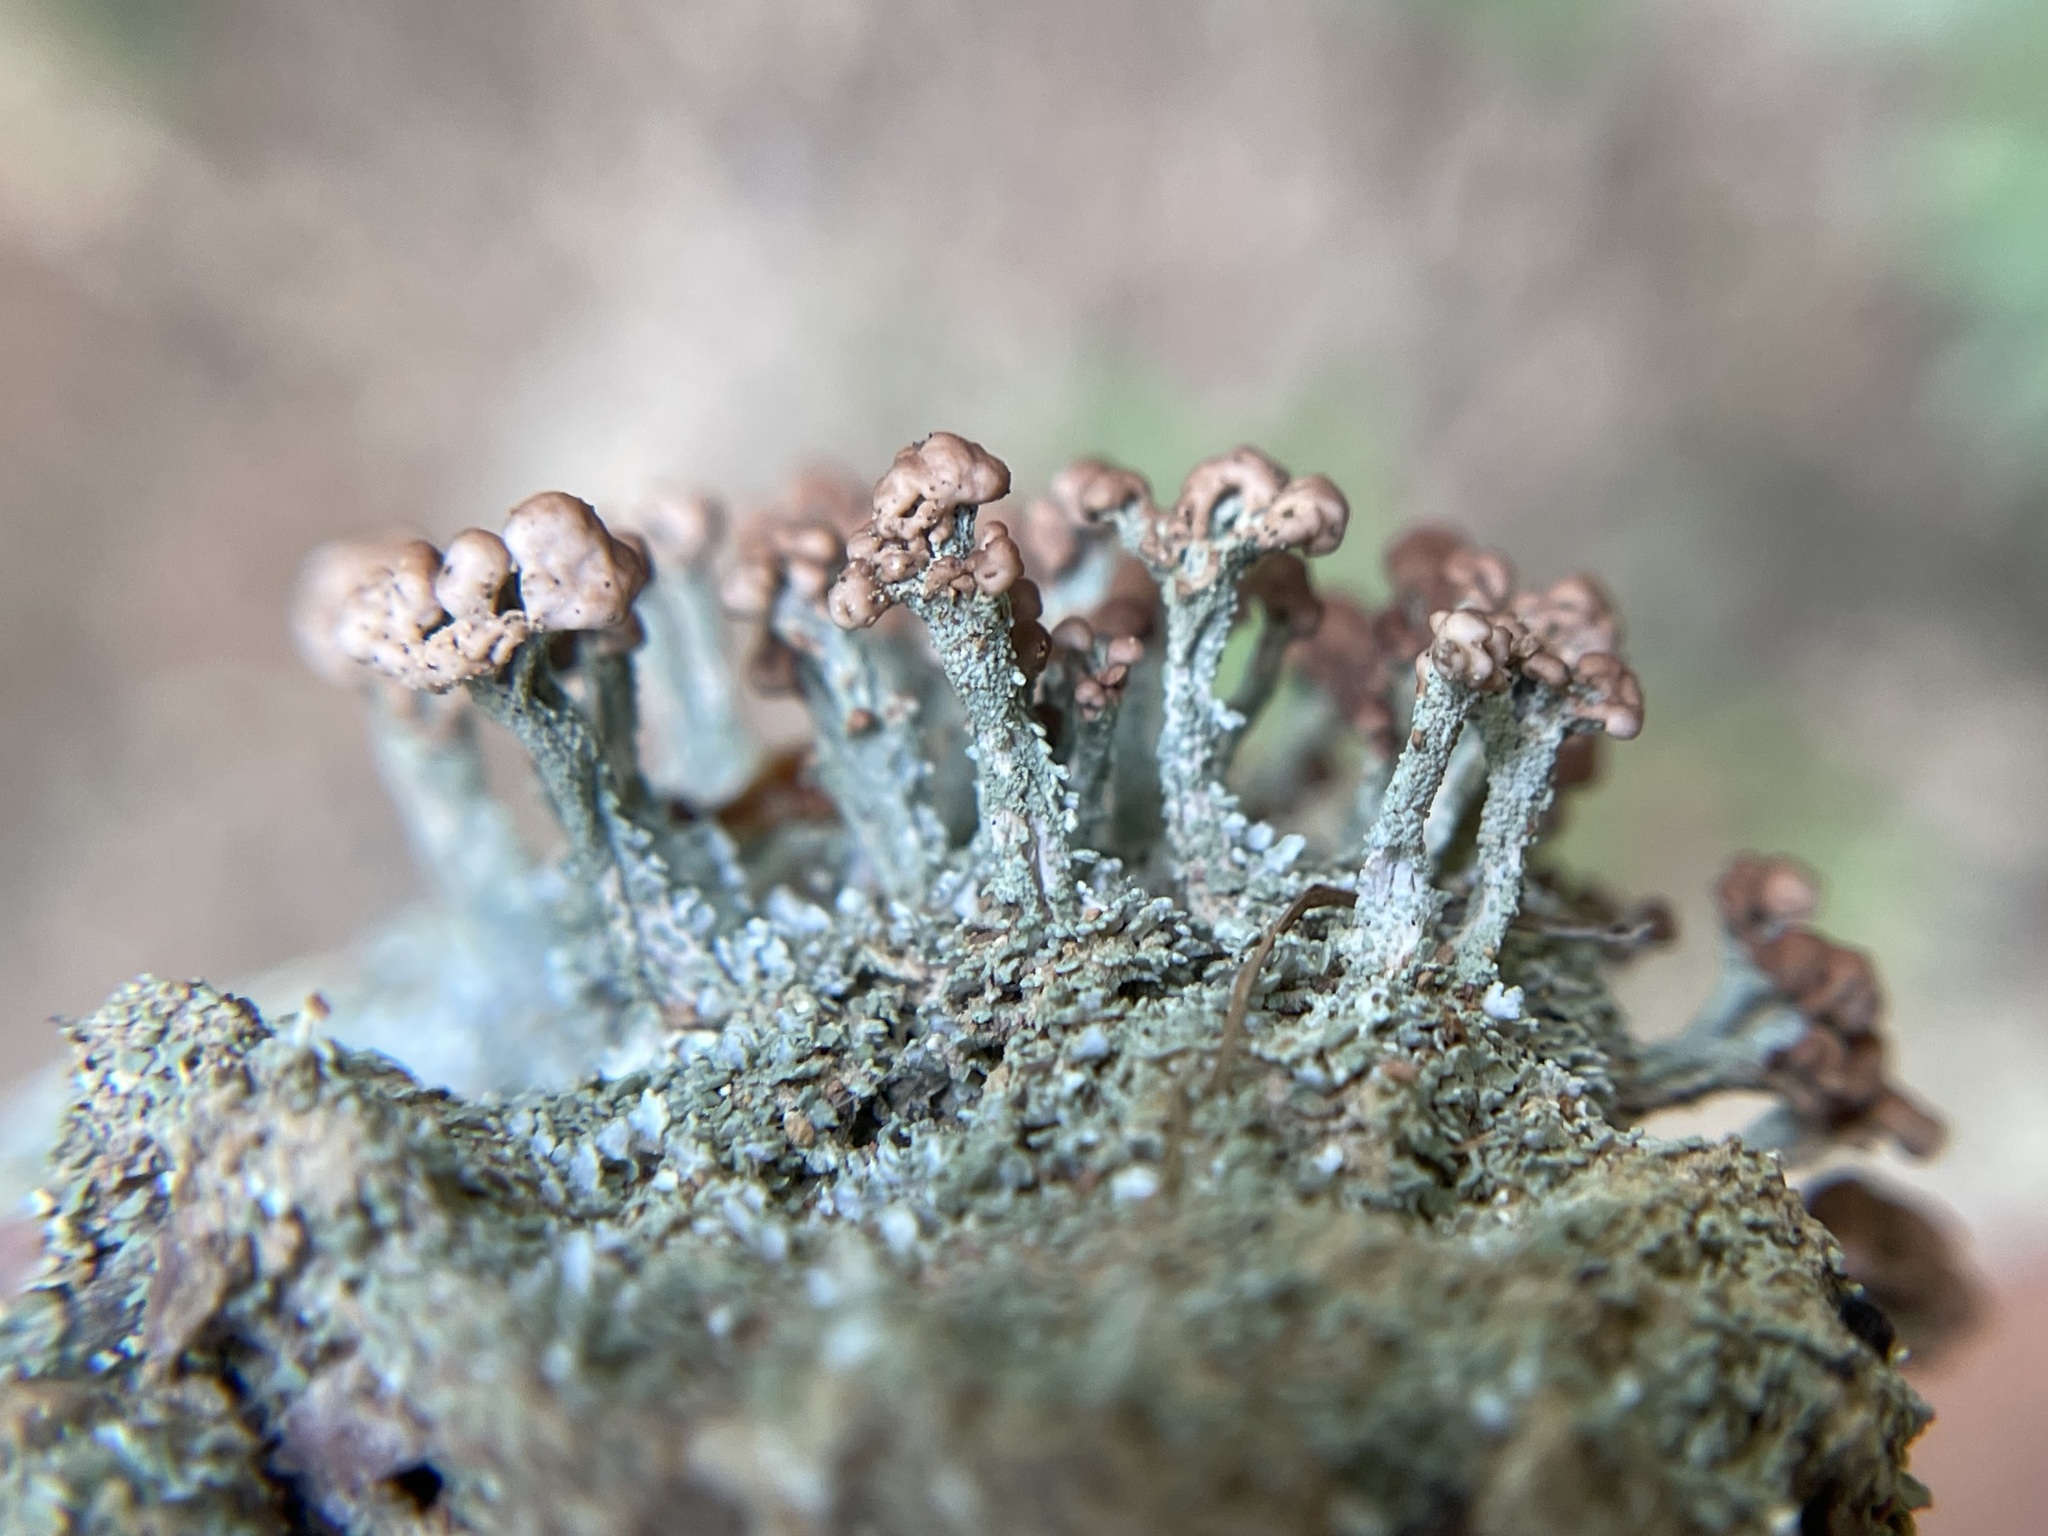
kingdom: Fungi
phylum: Ascomycota
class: Lecanoromycetes
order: Lecanorales
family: Cladoniaceae
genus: Cladonia
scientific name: Cladonia peziziformis
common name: Cup lichen
